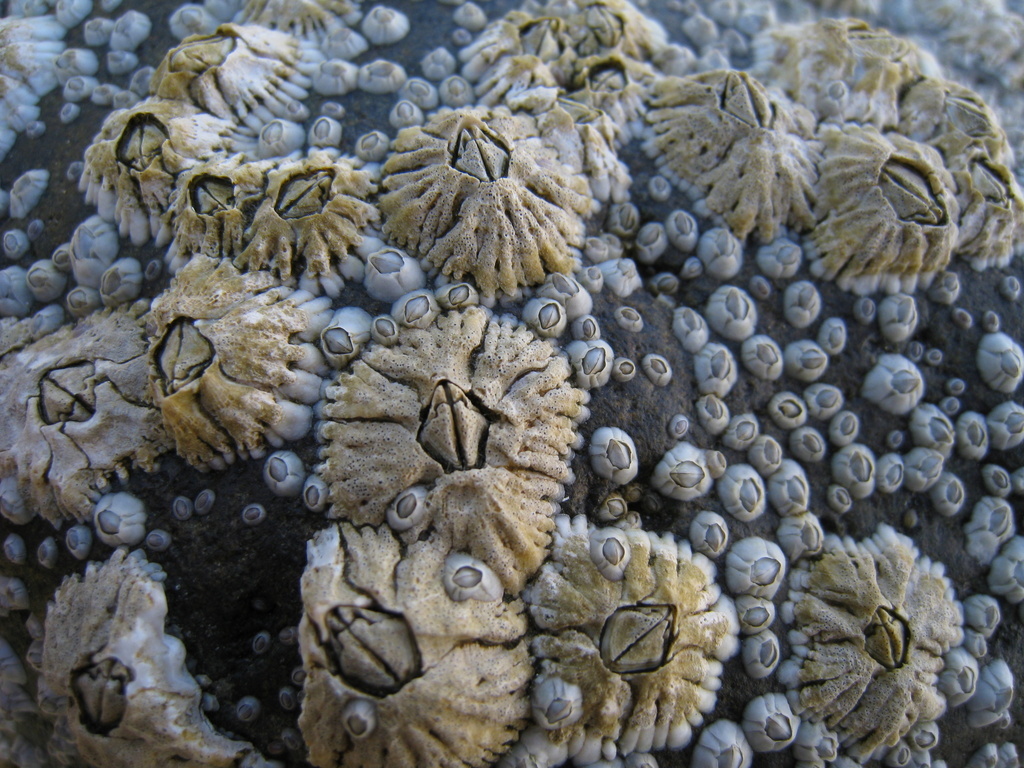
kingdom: Animalia
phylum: Arthropoda
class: Maxillopoda
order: Sessilia
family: Archaeobalanidae
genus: Semibalanus
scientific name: Semibalanus balanoides
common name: Acorn barnacle
